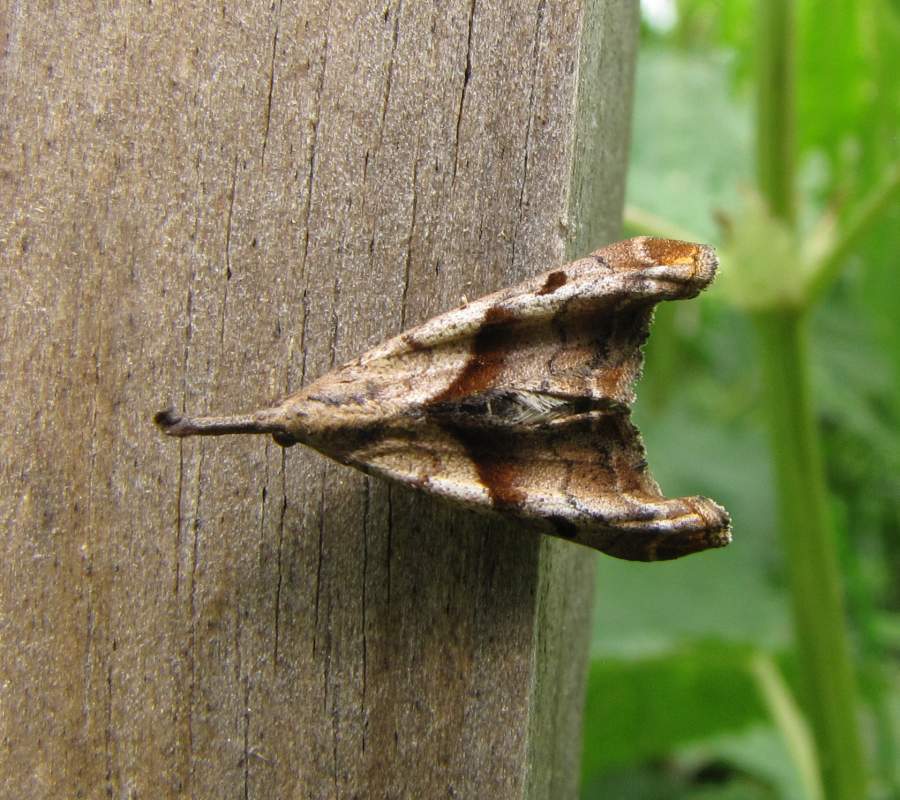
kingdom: Animalia
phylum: Arthropoda
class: Insecta
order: Lepidoptera
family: Erebidae
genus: Palthis
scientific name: Palthis angulalis
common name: Dark-spotted palthis moth
